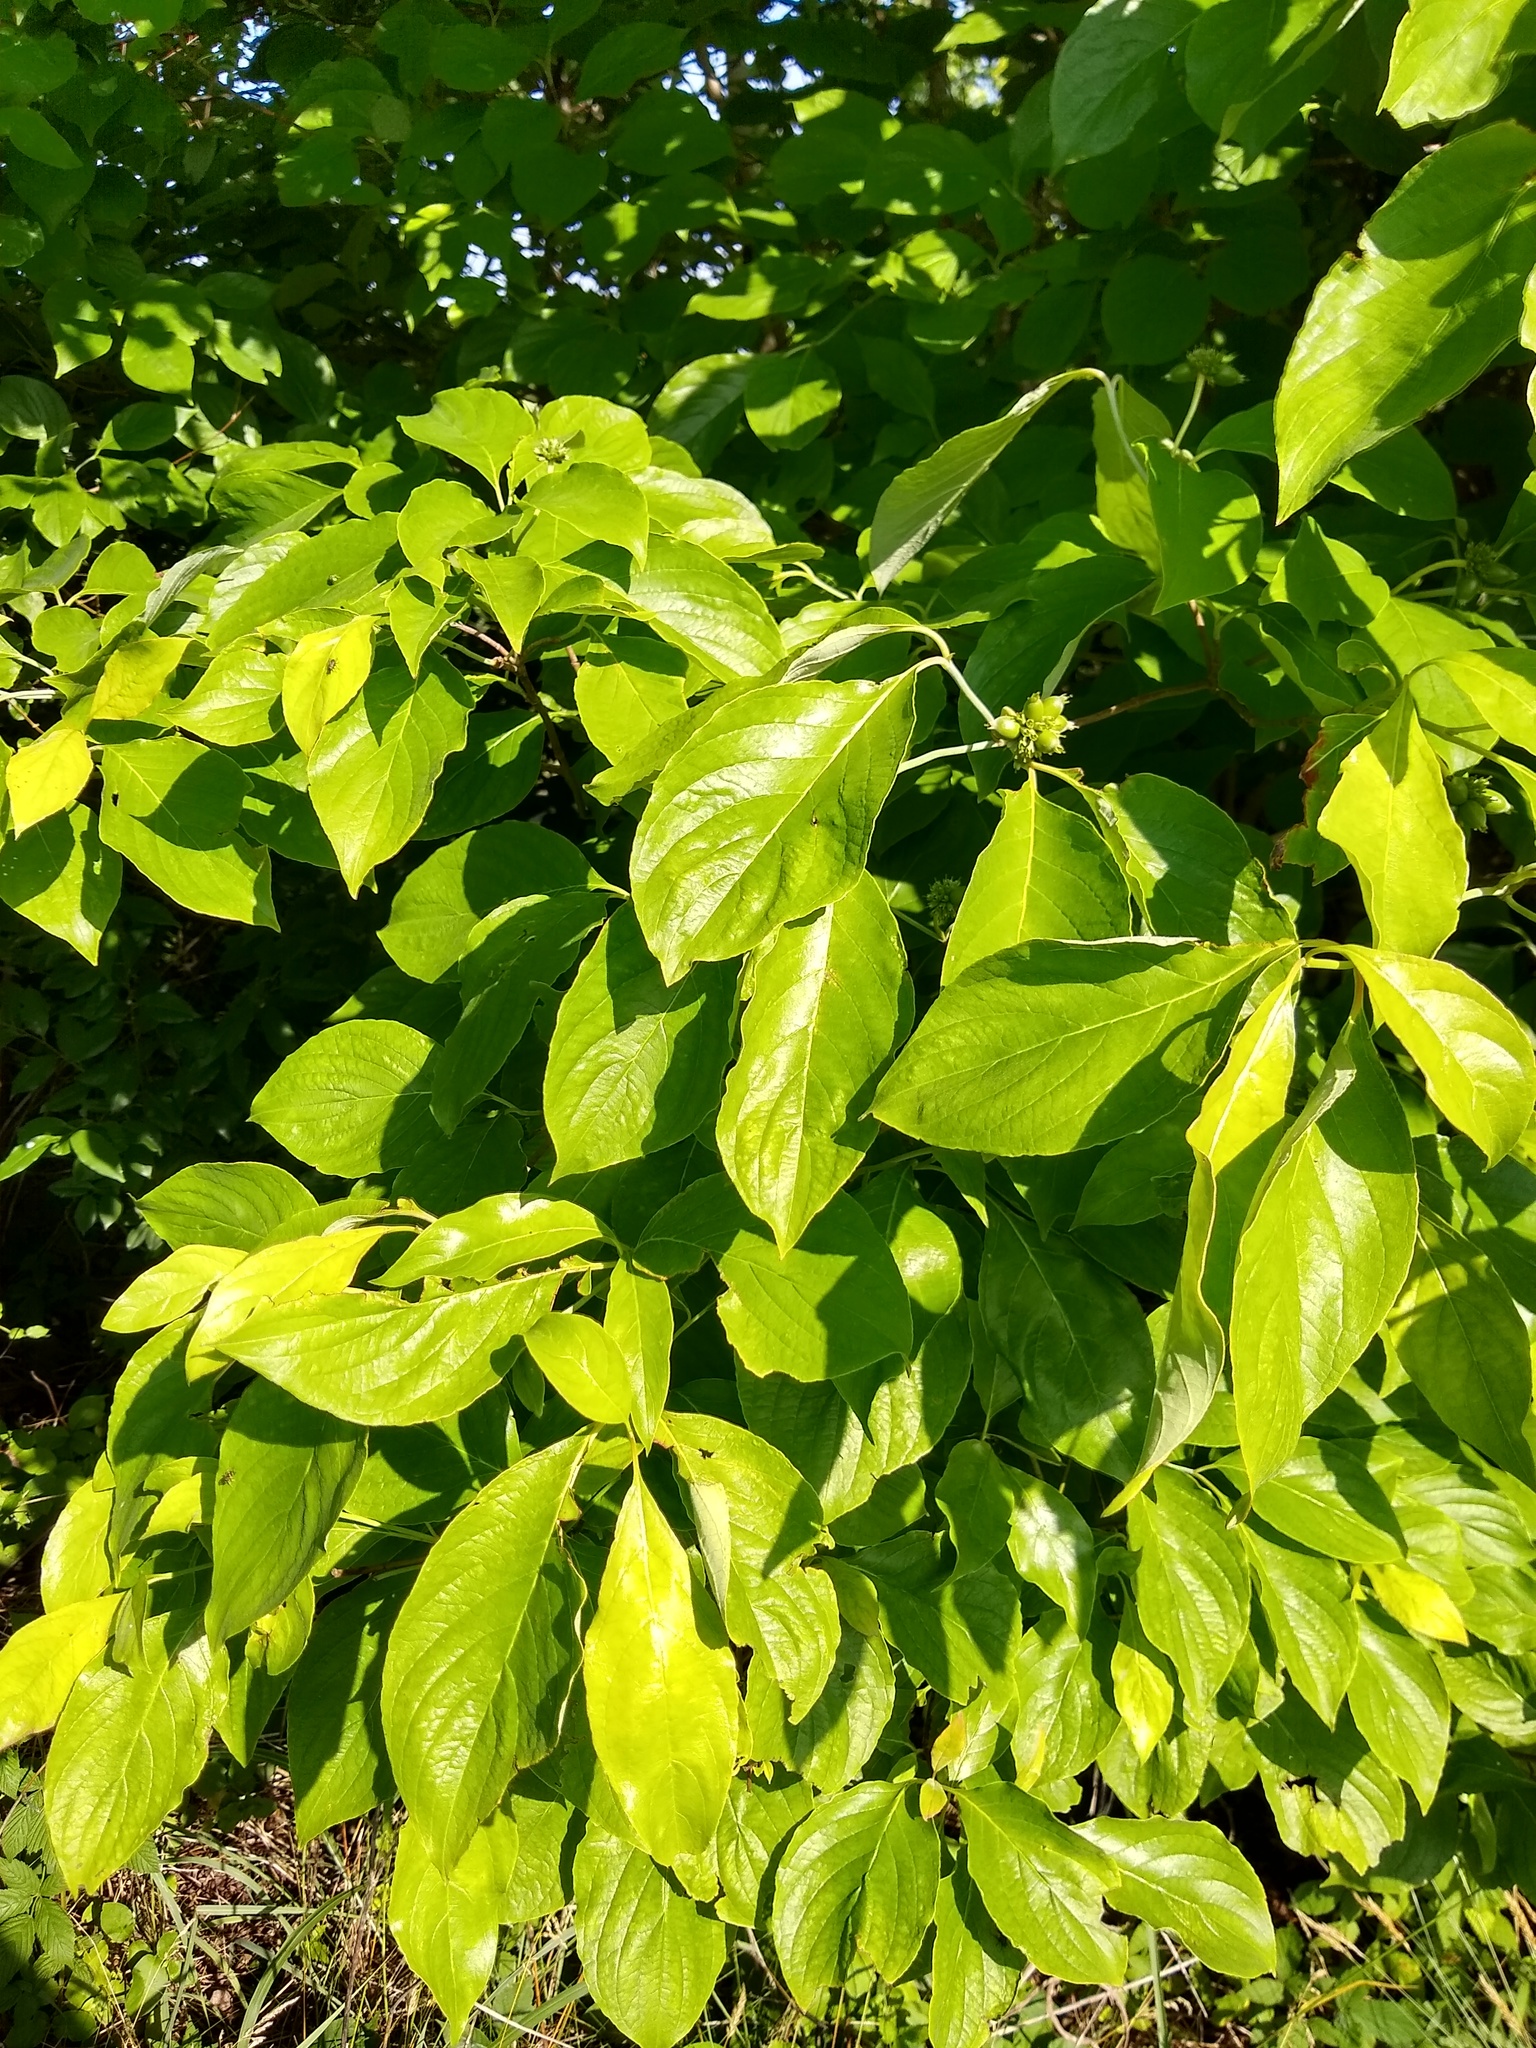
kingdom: Plantae
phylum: Tracheophyta
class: Magnoliopsida
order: Cornales
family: Cornaceae
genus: Cornus
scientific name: Cornus florida
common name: Flowering dogwood
